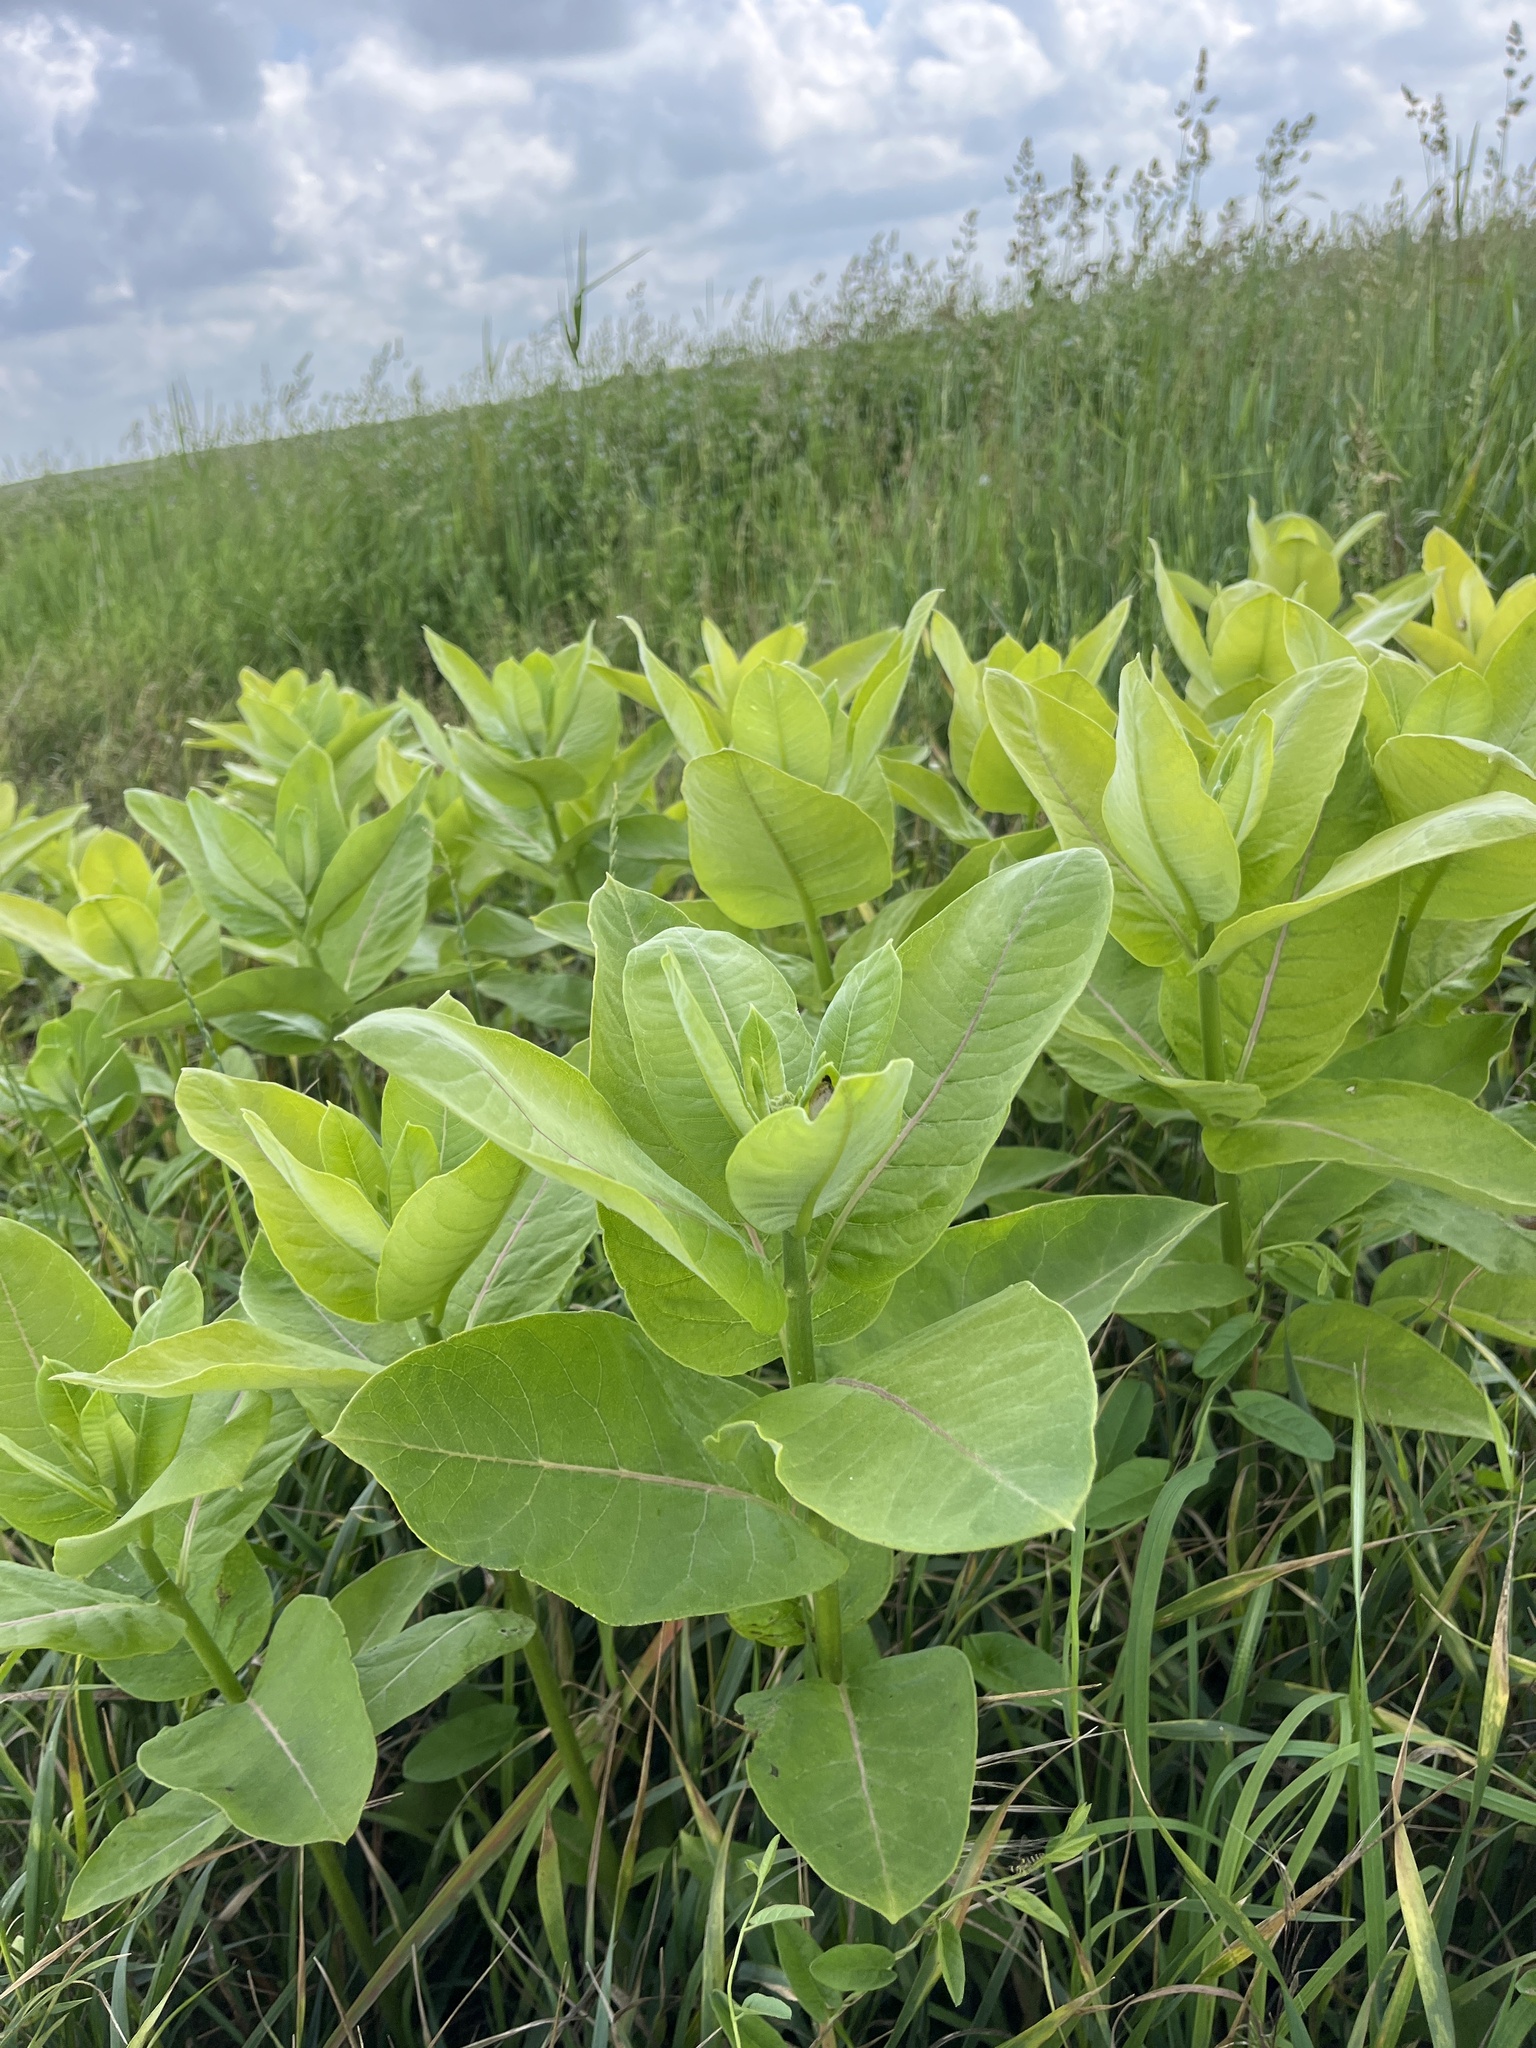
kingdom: Plantae
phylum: Tracheophyta
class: Magnoliopsida
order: Gentianales
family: Apocynaceae
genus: Asclepias
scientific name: Asclepias syriaca
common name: Common milkweed
